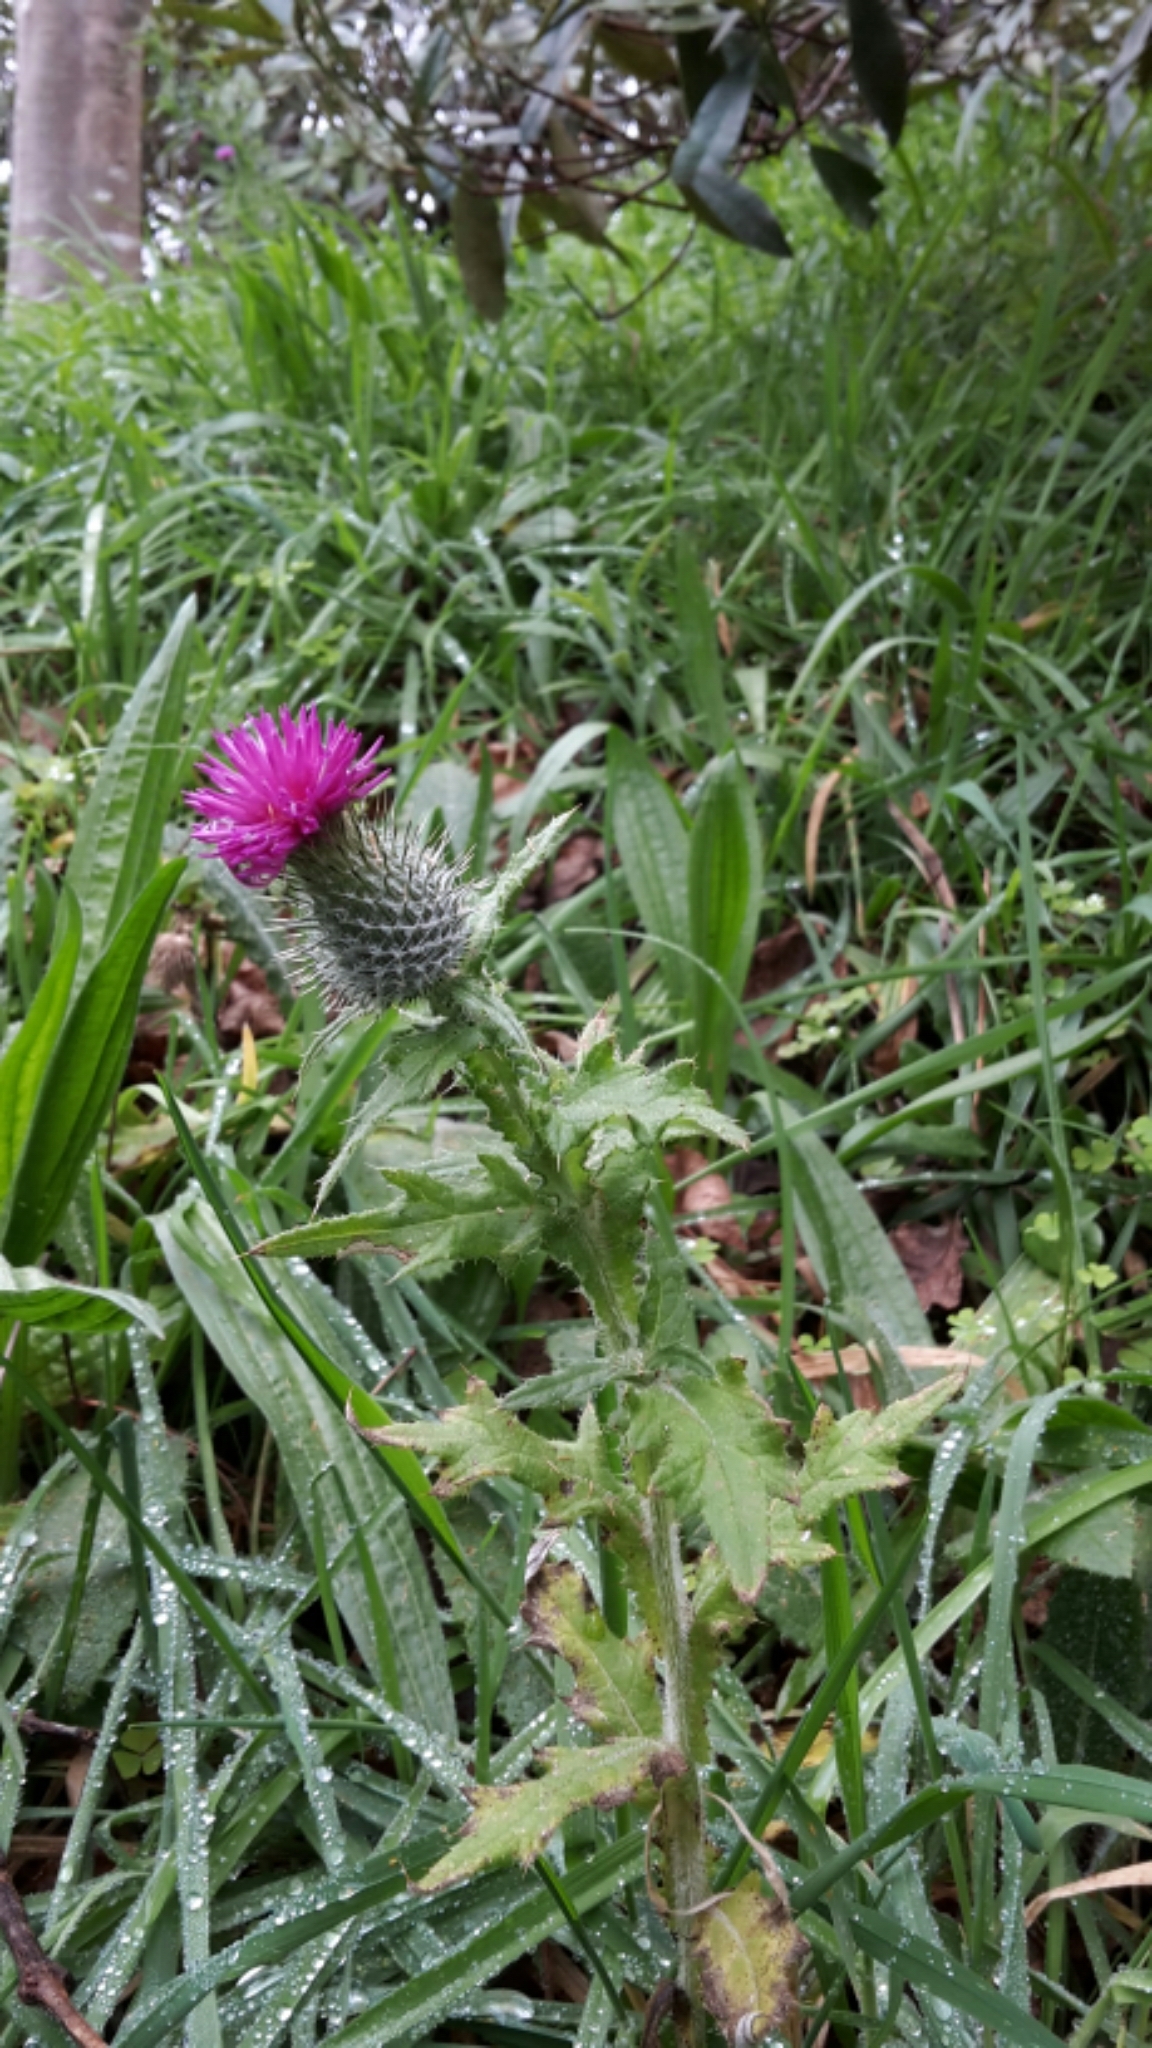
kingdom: Plantae
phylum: Tracheophyta
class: Magnoliopsida
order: Asterales
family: Asteraceae
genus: Cirsium
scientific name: Cirsium vulgare
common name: Bull thistle
